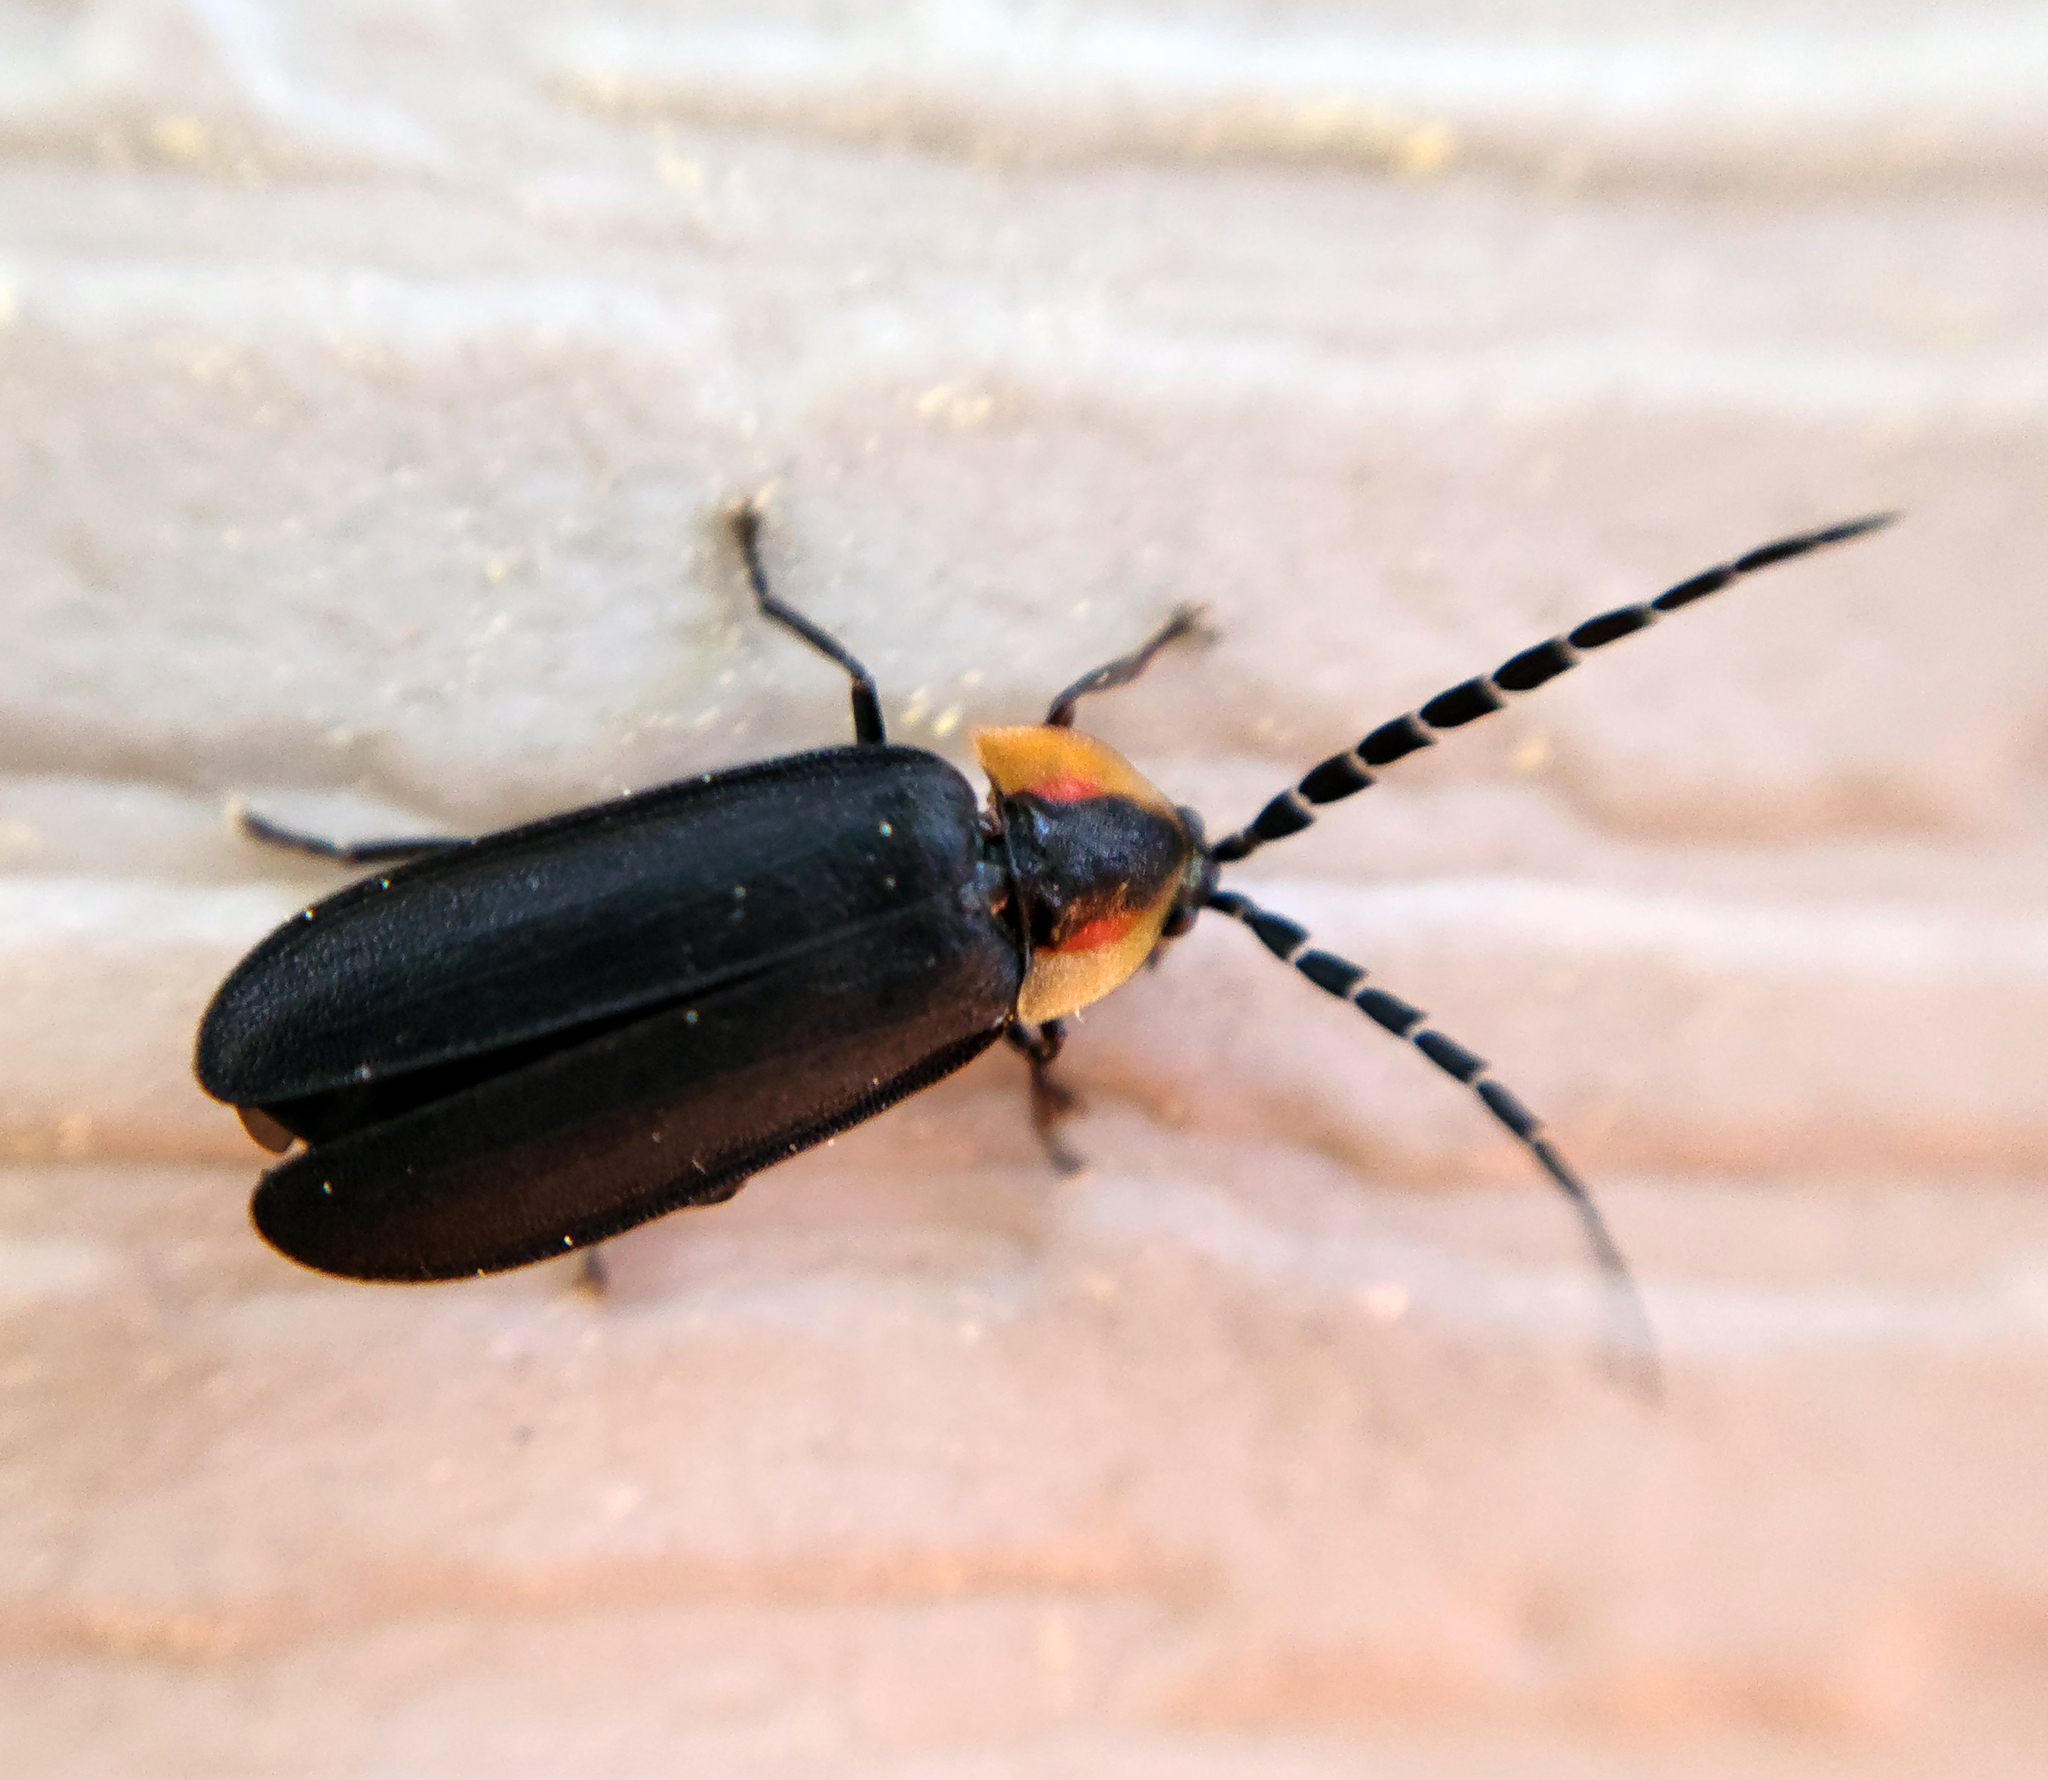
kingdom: Animalia
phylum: Arthropoda
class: Insecta
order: Coleoptera
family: Lampyridae
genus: Lucidota
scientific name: Lucidota atra
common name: Black firefly
